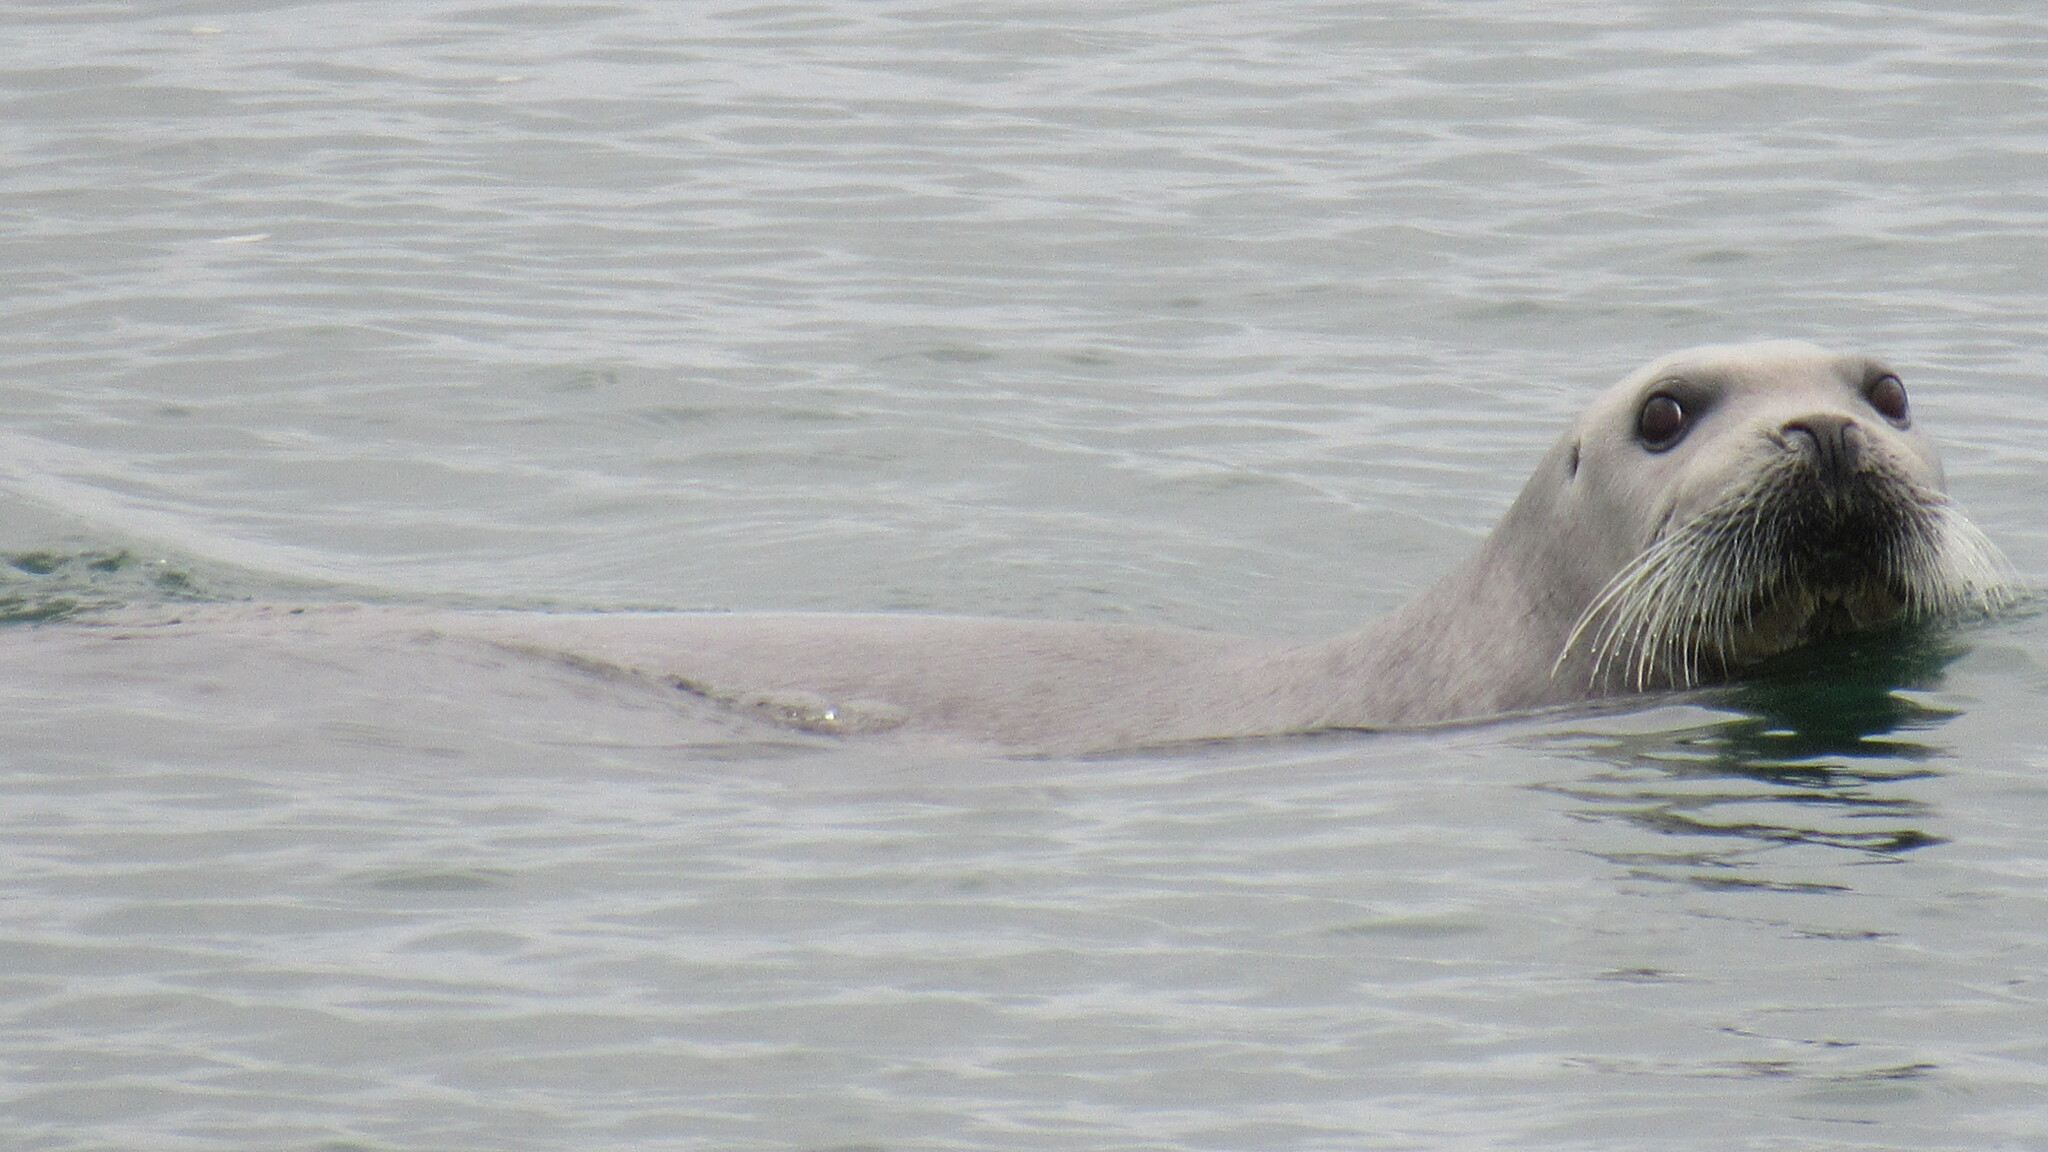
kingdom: Animalia
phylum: Chordata
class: Mammalia
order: Carnivora
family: Phocidae
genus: Erignathus
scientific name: Erignathus barbatus
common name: Bearded seal
